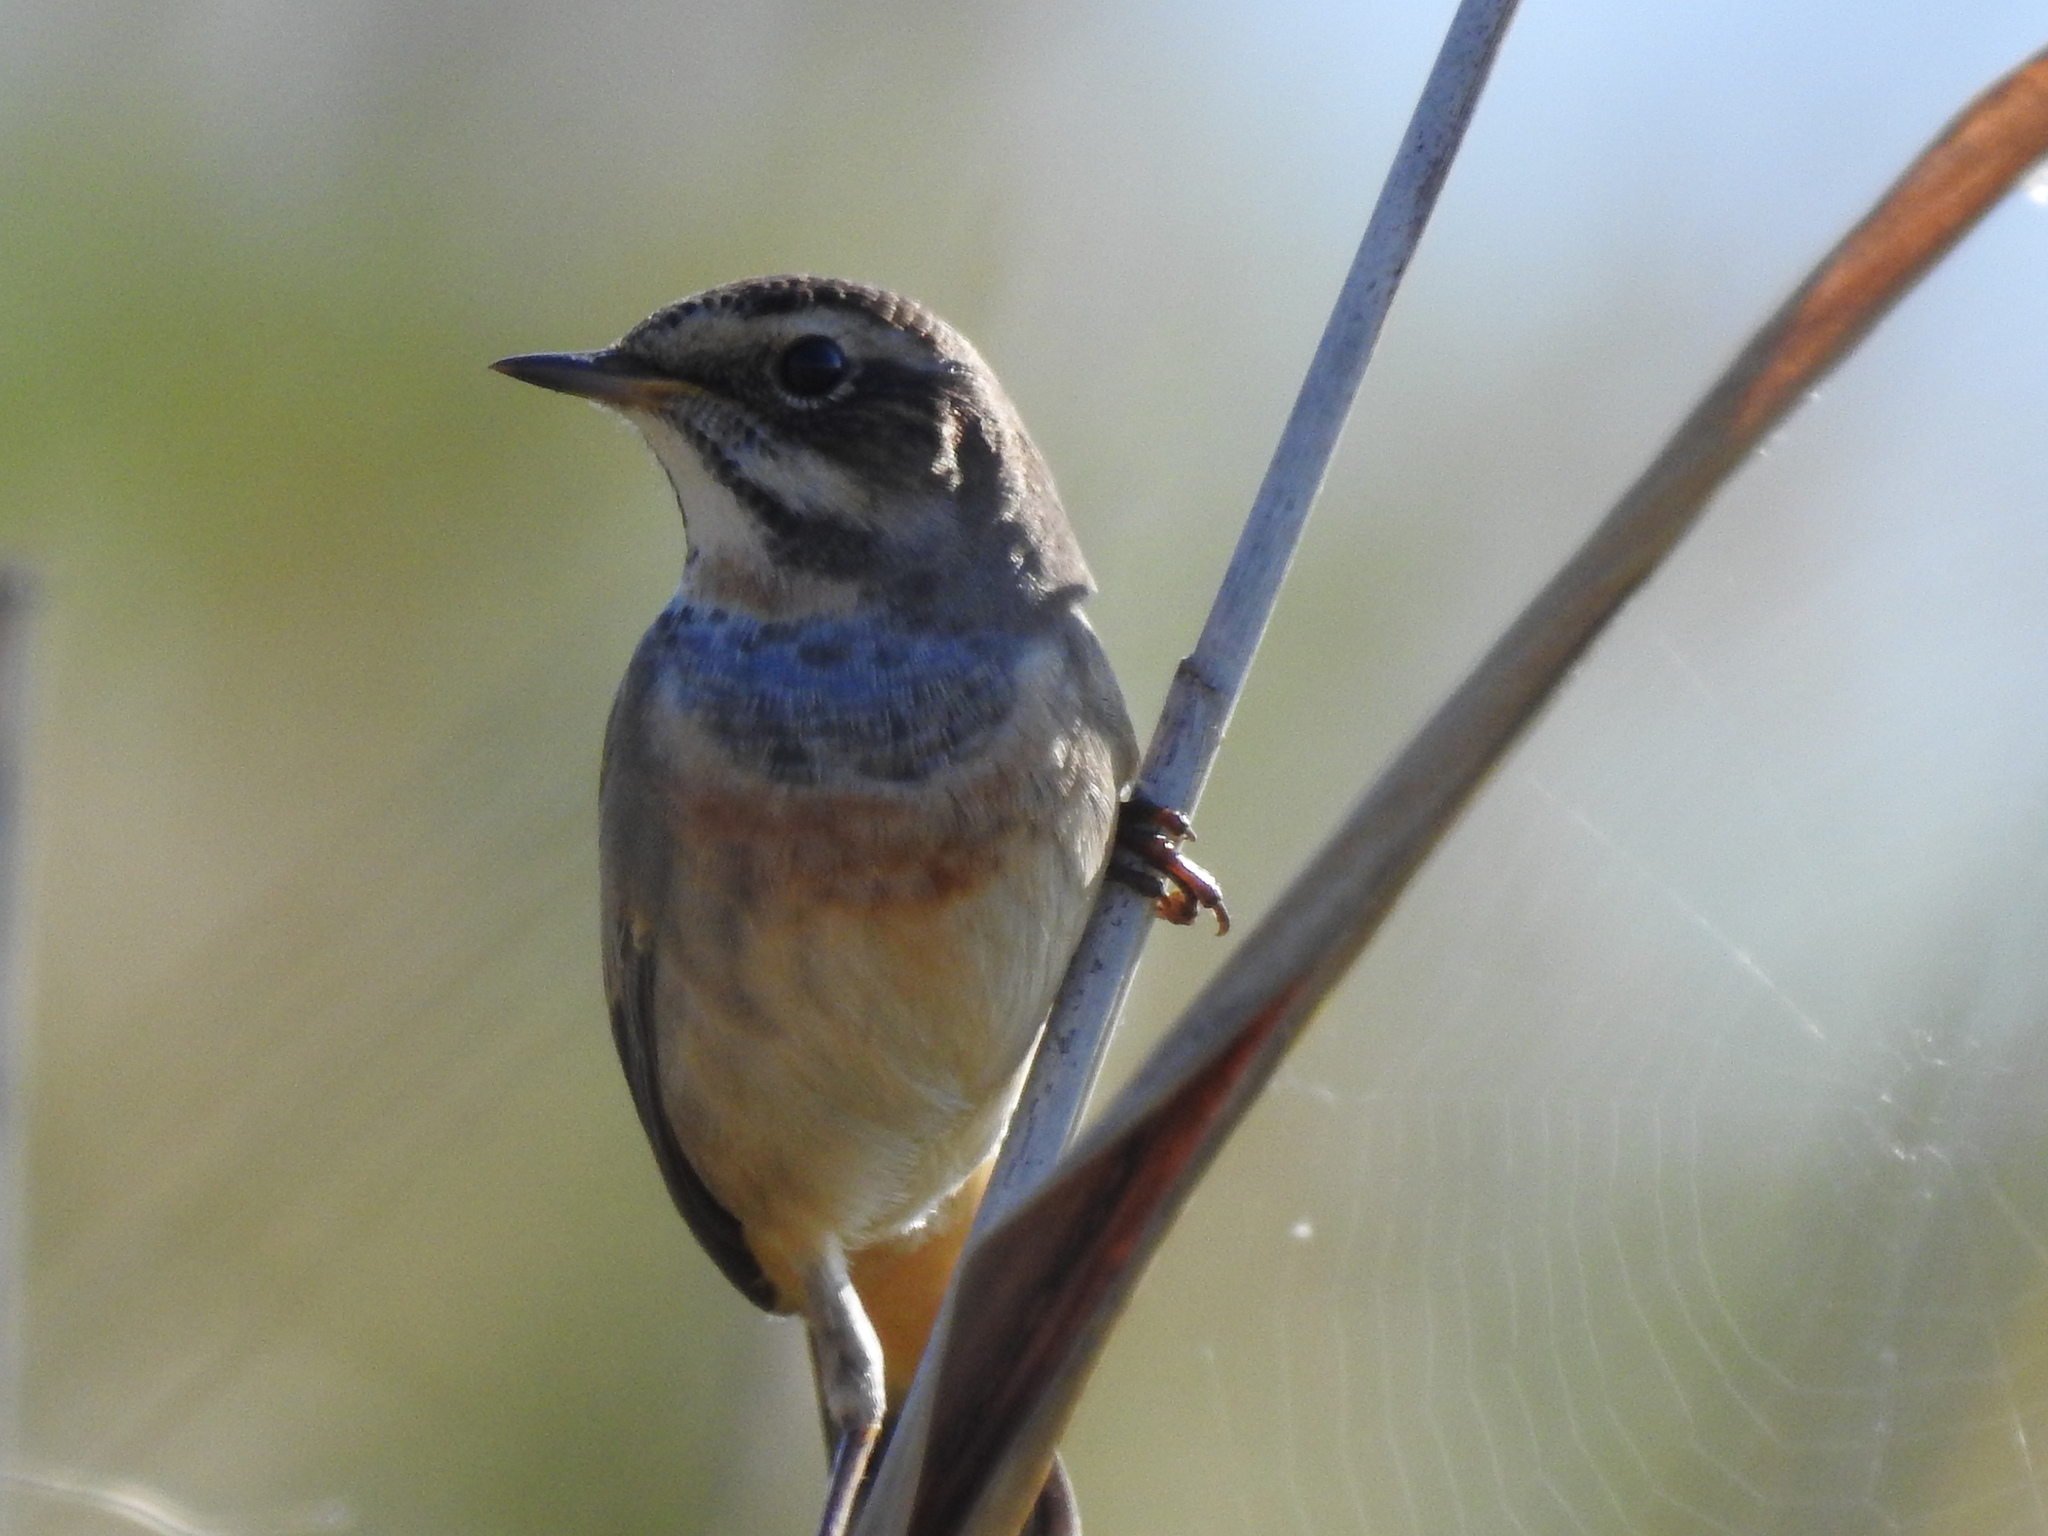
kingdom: Animalia
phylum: Chordata
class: Aves
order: Passeriformes
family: Muscicapidae
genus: Luscinia
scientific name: Luscinia svecica
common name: Bluethroat
